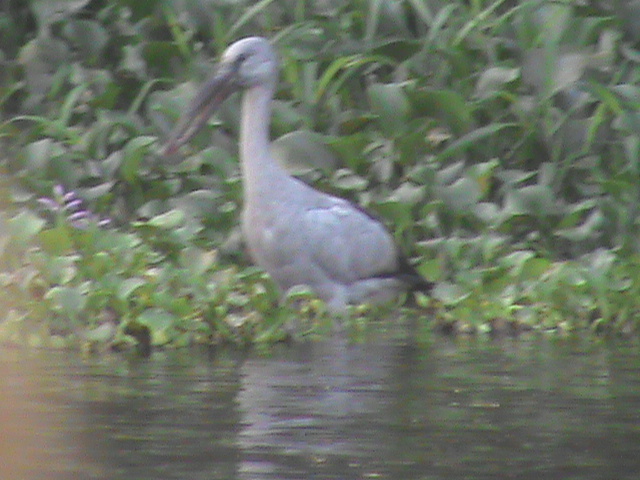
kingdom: Animalia
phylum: Chordata
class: Aves
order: Ciconiiformes
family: Ciconiidae
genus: Anastomus
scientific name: Anastomus oscitans
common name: Asian openbill
